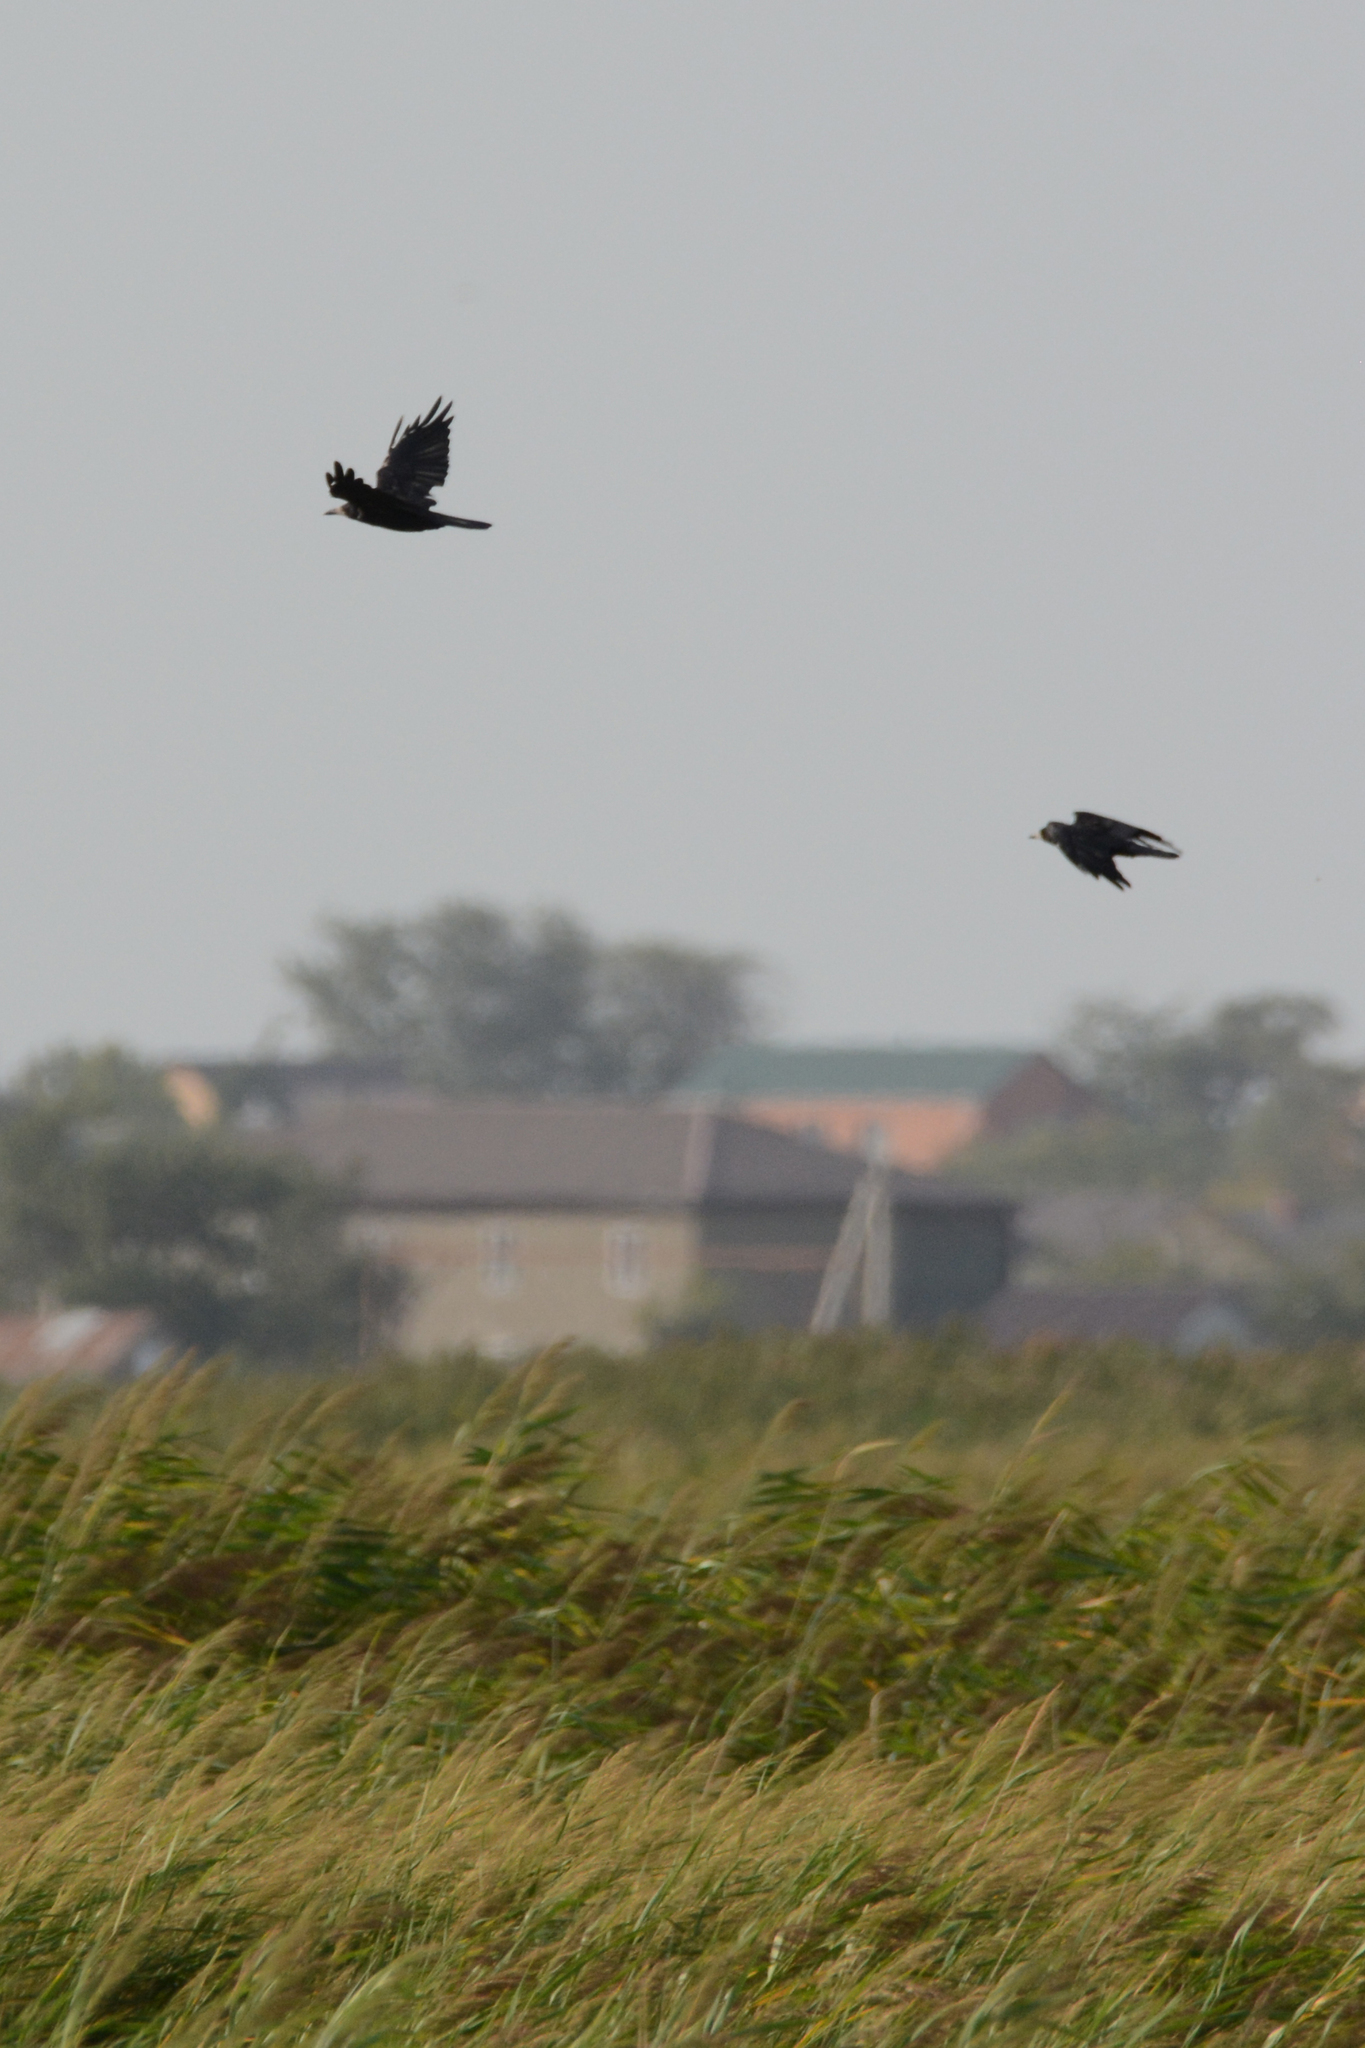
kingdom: Animalia
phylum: Chordata
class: Aves
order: Passeriformes
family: Corvidae
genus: Corvus
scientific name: Corvus frugilegus
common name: Rook
